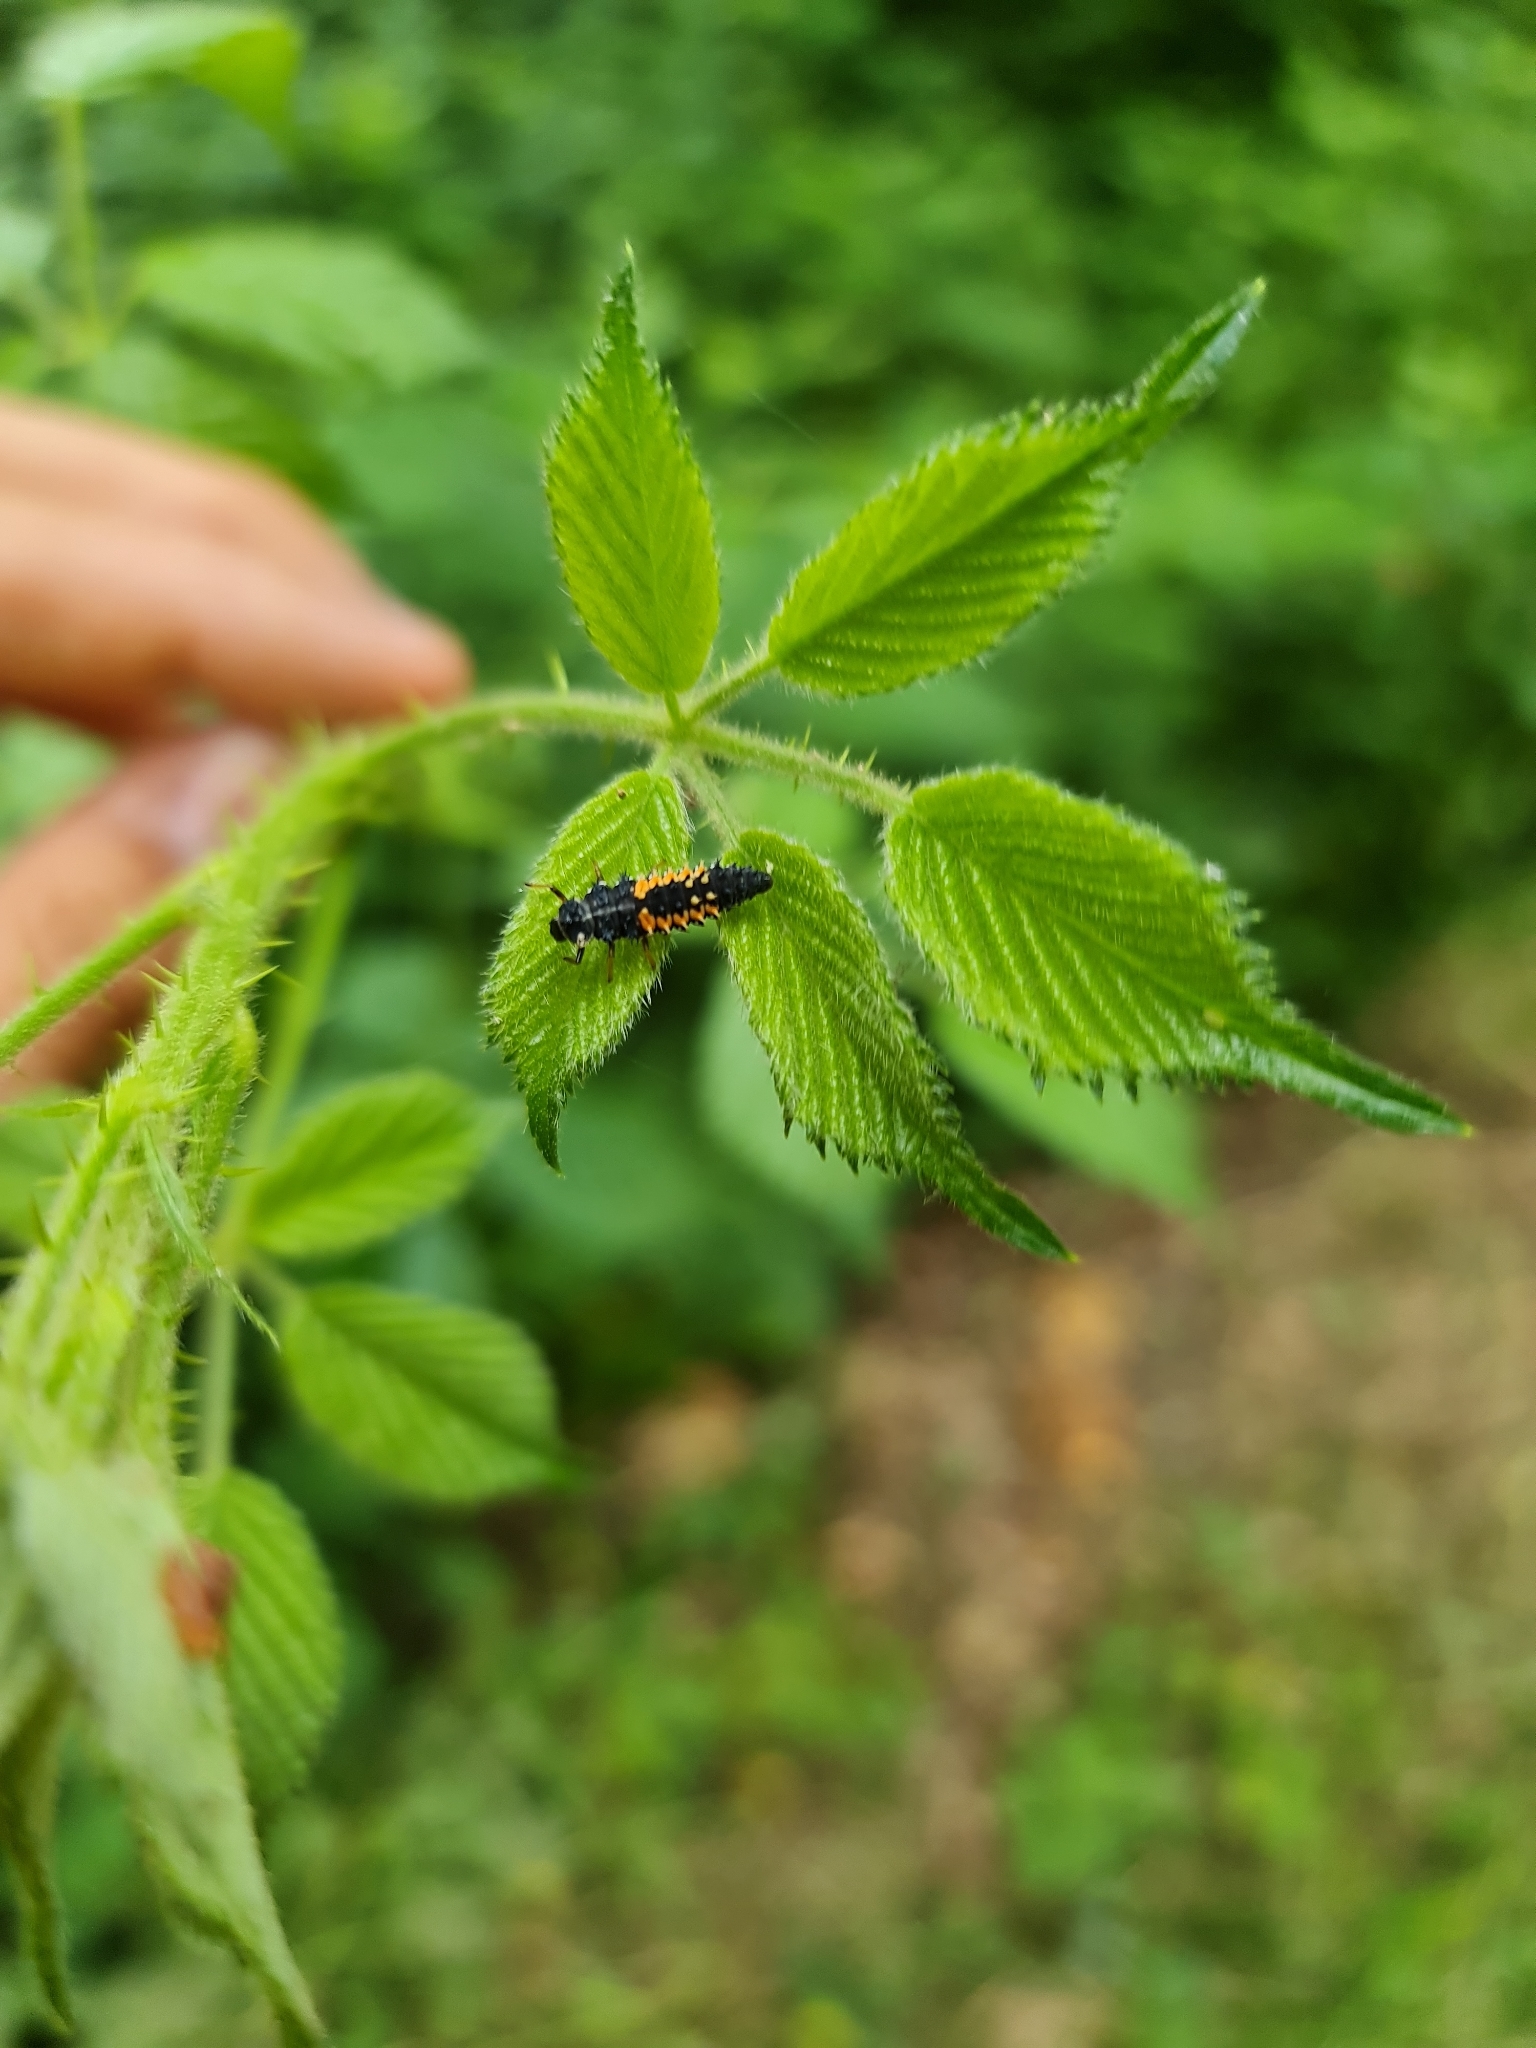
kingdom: Animalia
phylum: Arthropoda
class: Insecta
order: Coleoptera
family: Coccinellidae
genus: Harmonia
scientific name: Harmonia axyridis
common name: Harlequin ladybird
